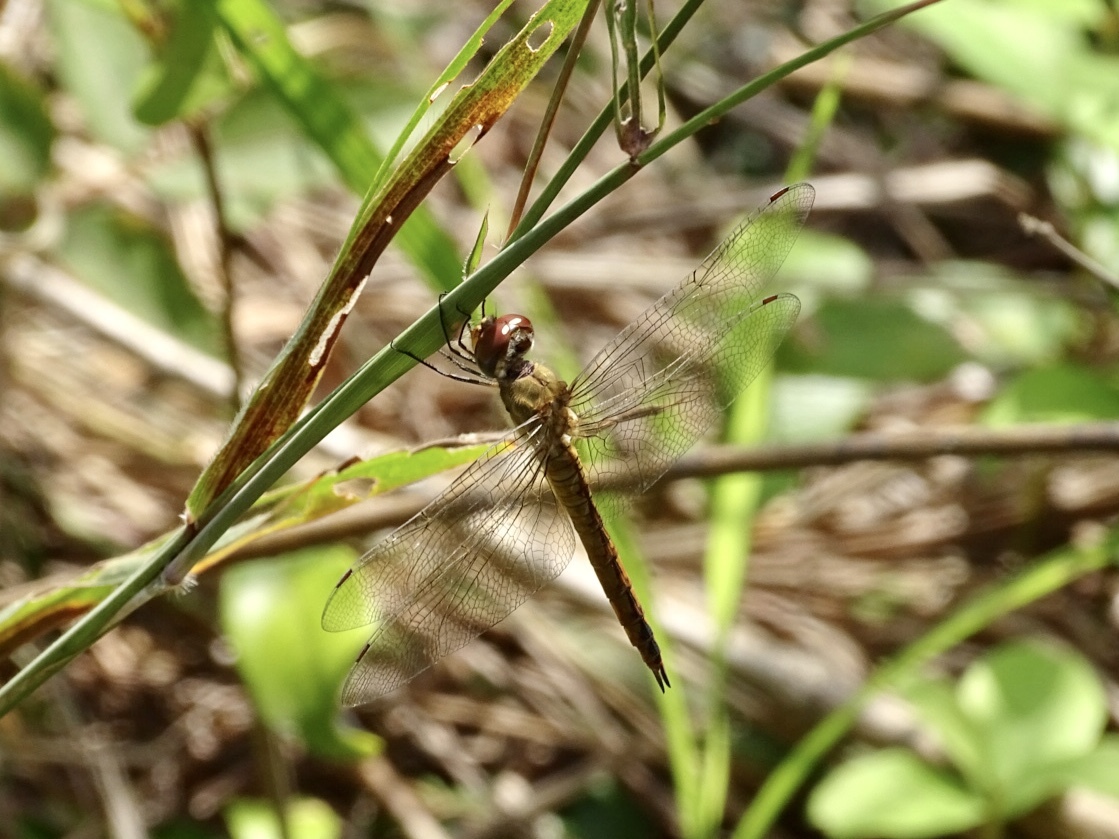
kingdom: Animalia
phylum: Arthropoda
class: Insecta
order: Odonata
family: Libellulidae
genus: Pantala
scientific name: Pantala flavescens
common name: Wandering glider
